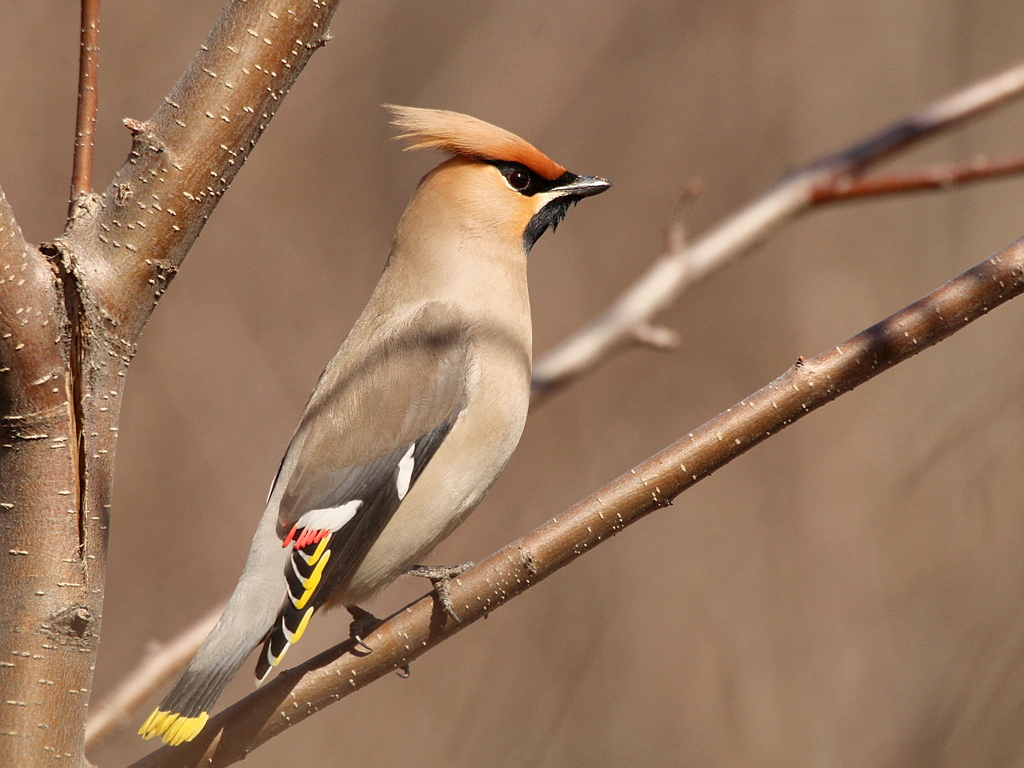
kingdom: Animalia
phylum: Chordata
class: Aves
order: Passeriformes
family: Bombycillidae
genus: Bombycilla
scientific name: Bombycilla garrulus
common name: Bohemian waxwing
